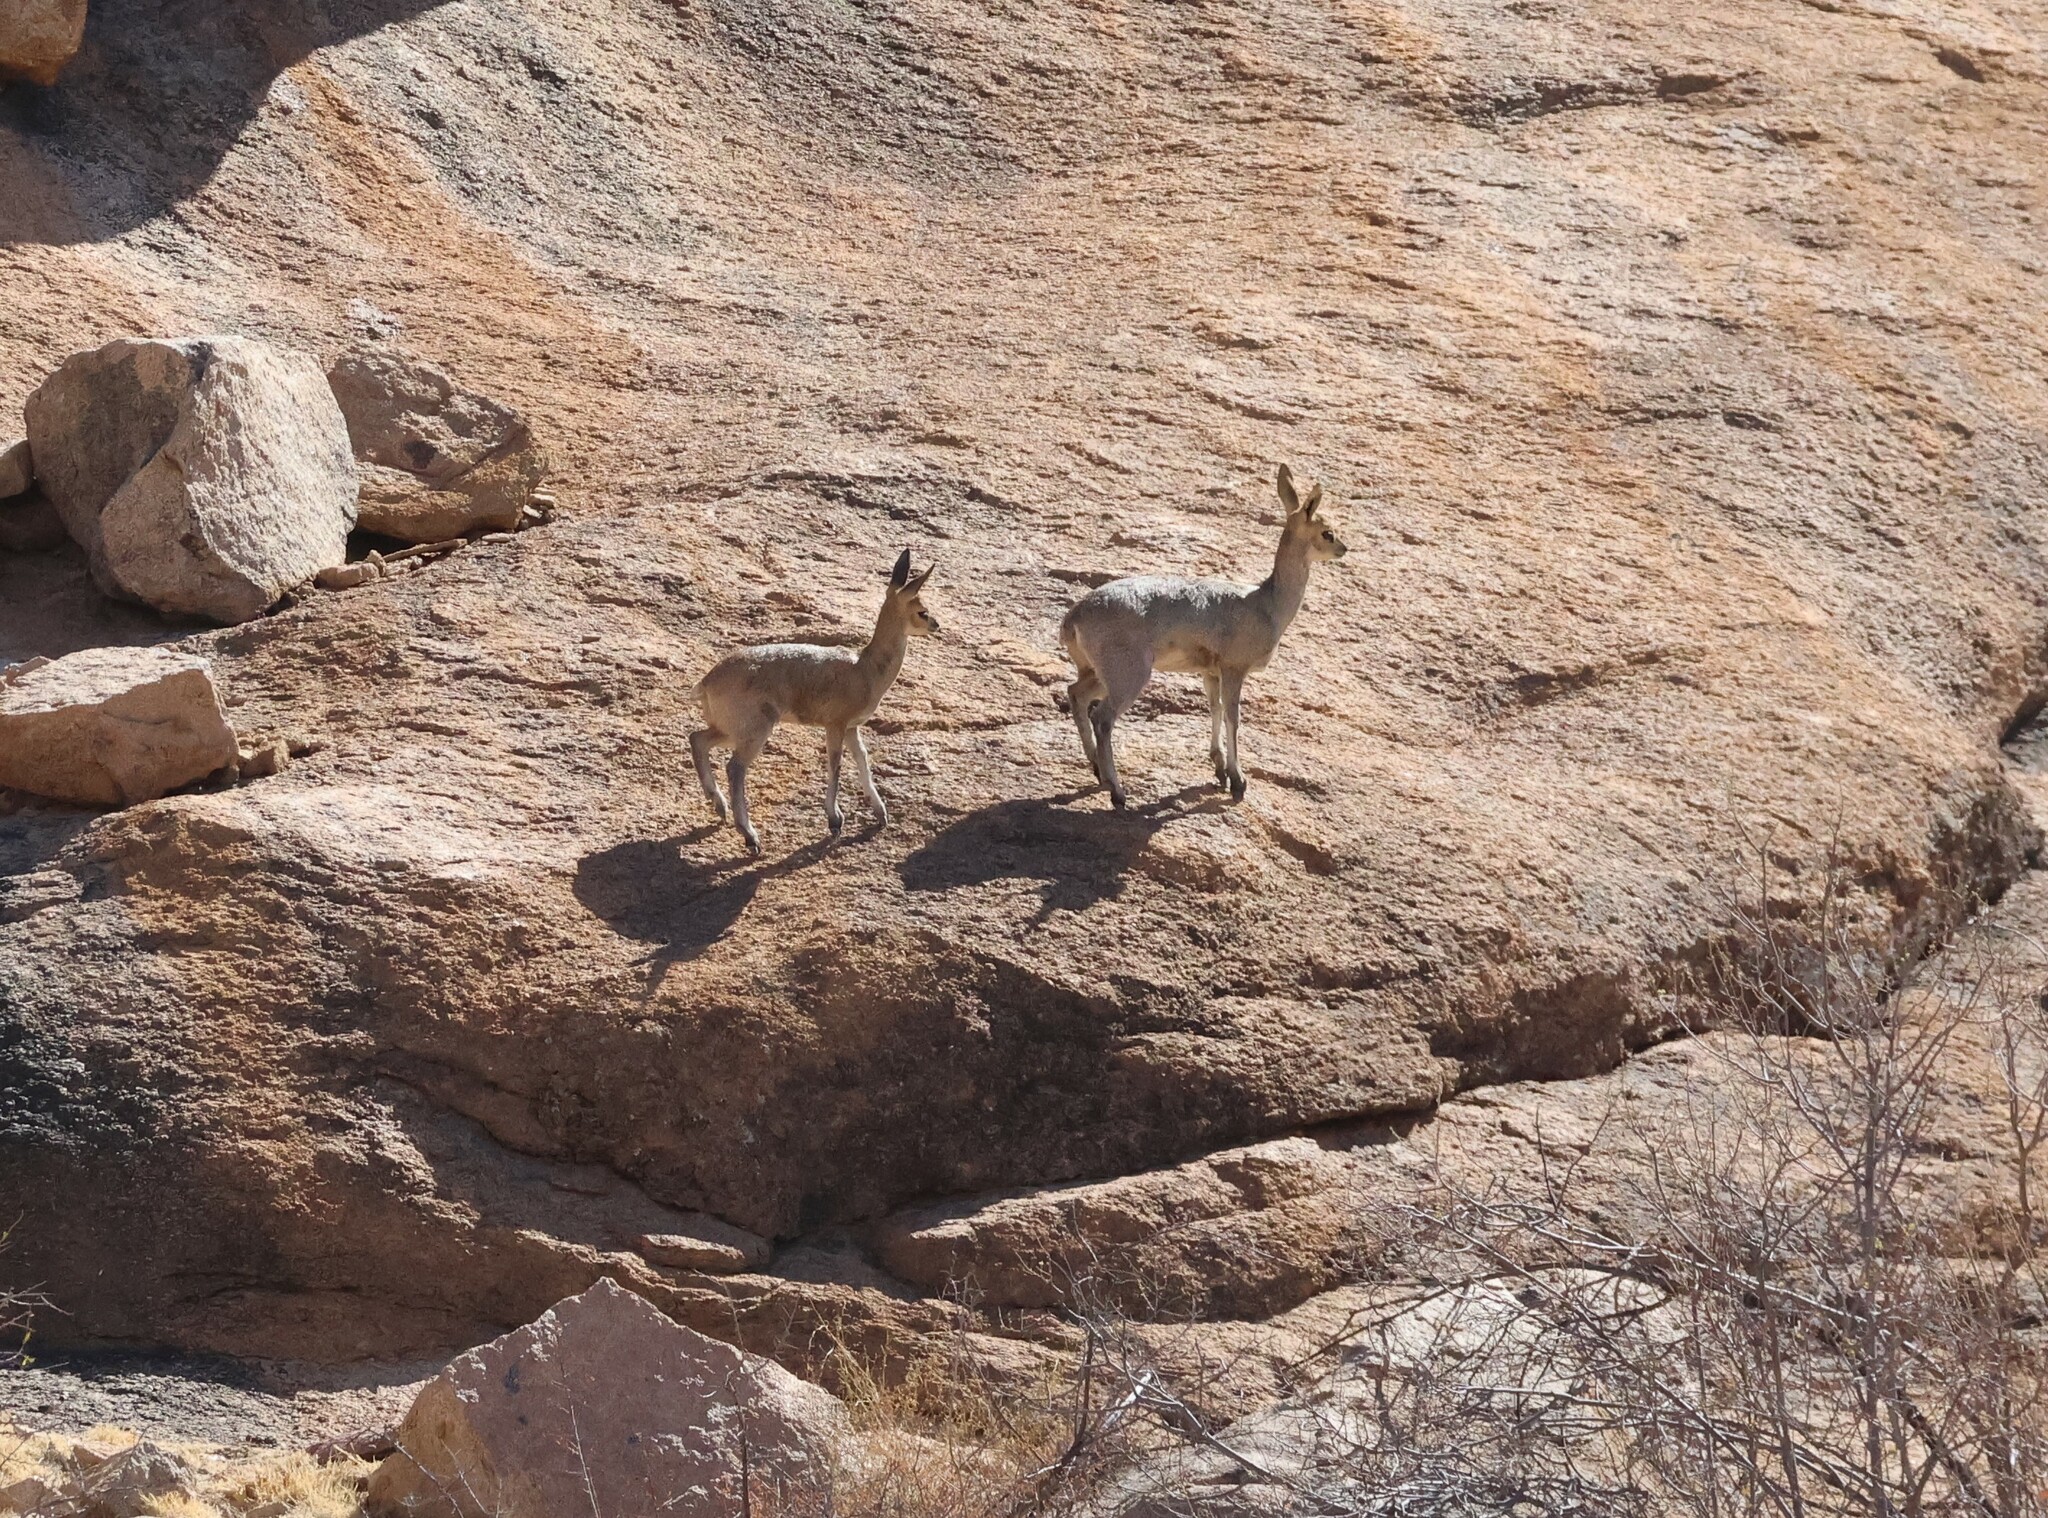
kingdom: Animalia
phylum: Chordata
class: Mammalia
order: Artiodactyla
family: Bovidae
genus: Oreotragus
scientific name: Oreotragus oreotragus
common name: Klipspringer
